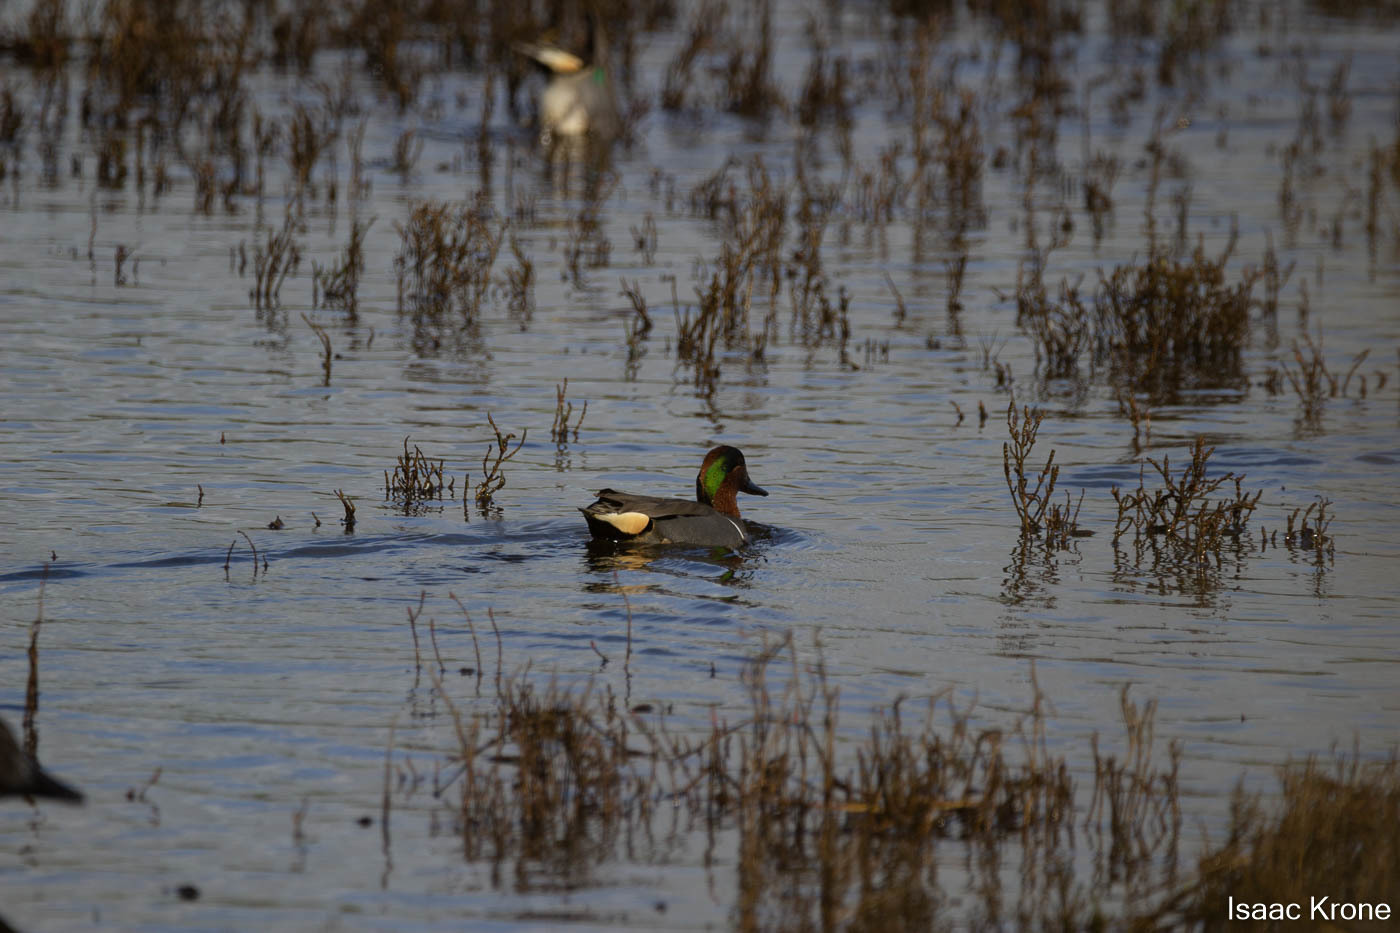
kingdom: Animalia
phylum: Chordata
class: Aves
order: Anseriformes
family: Anatidae
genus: Anas
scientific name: Anas carolinensis
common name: Green-winged teal
